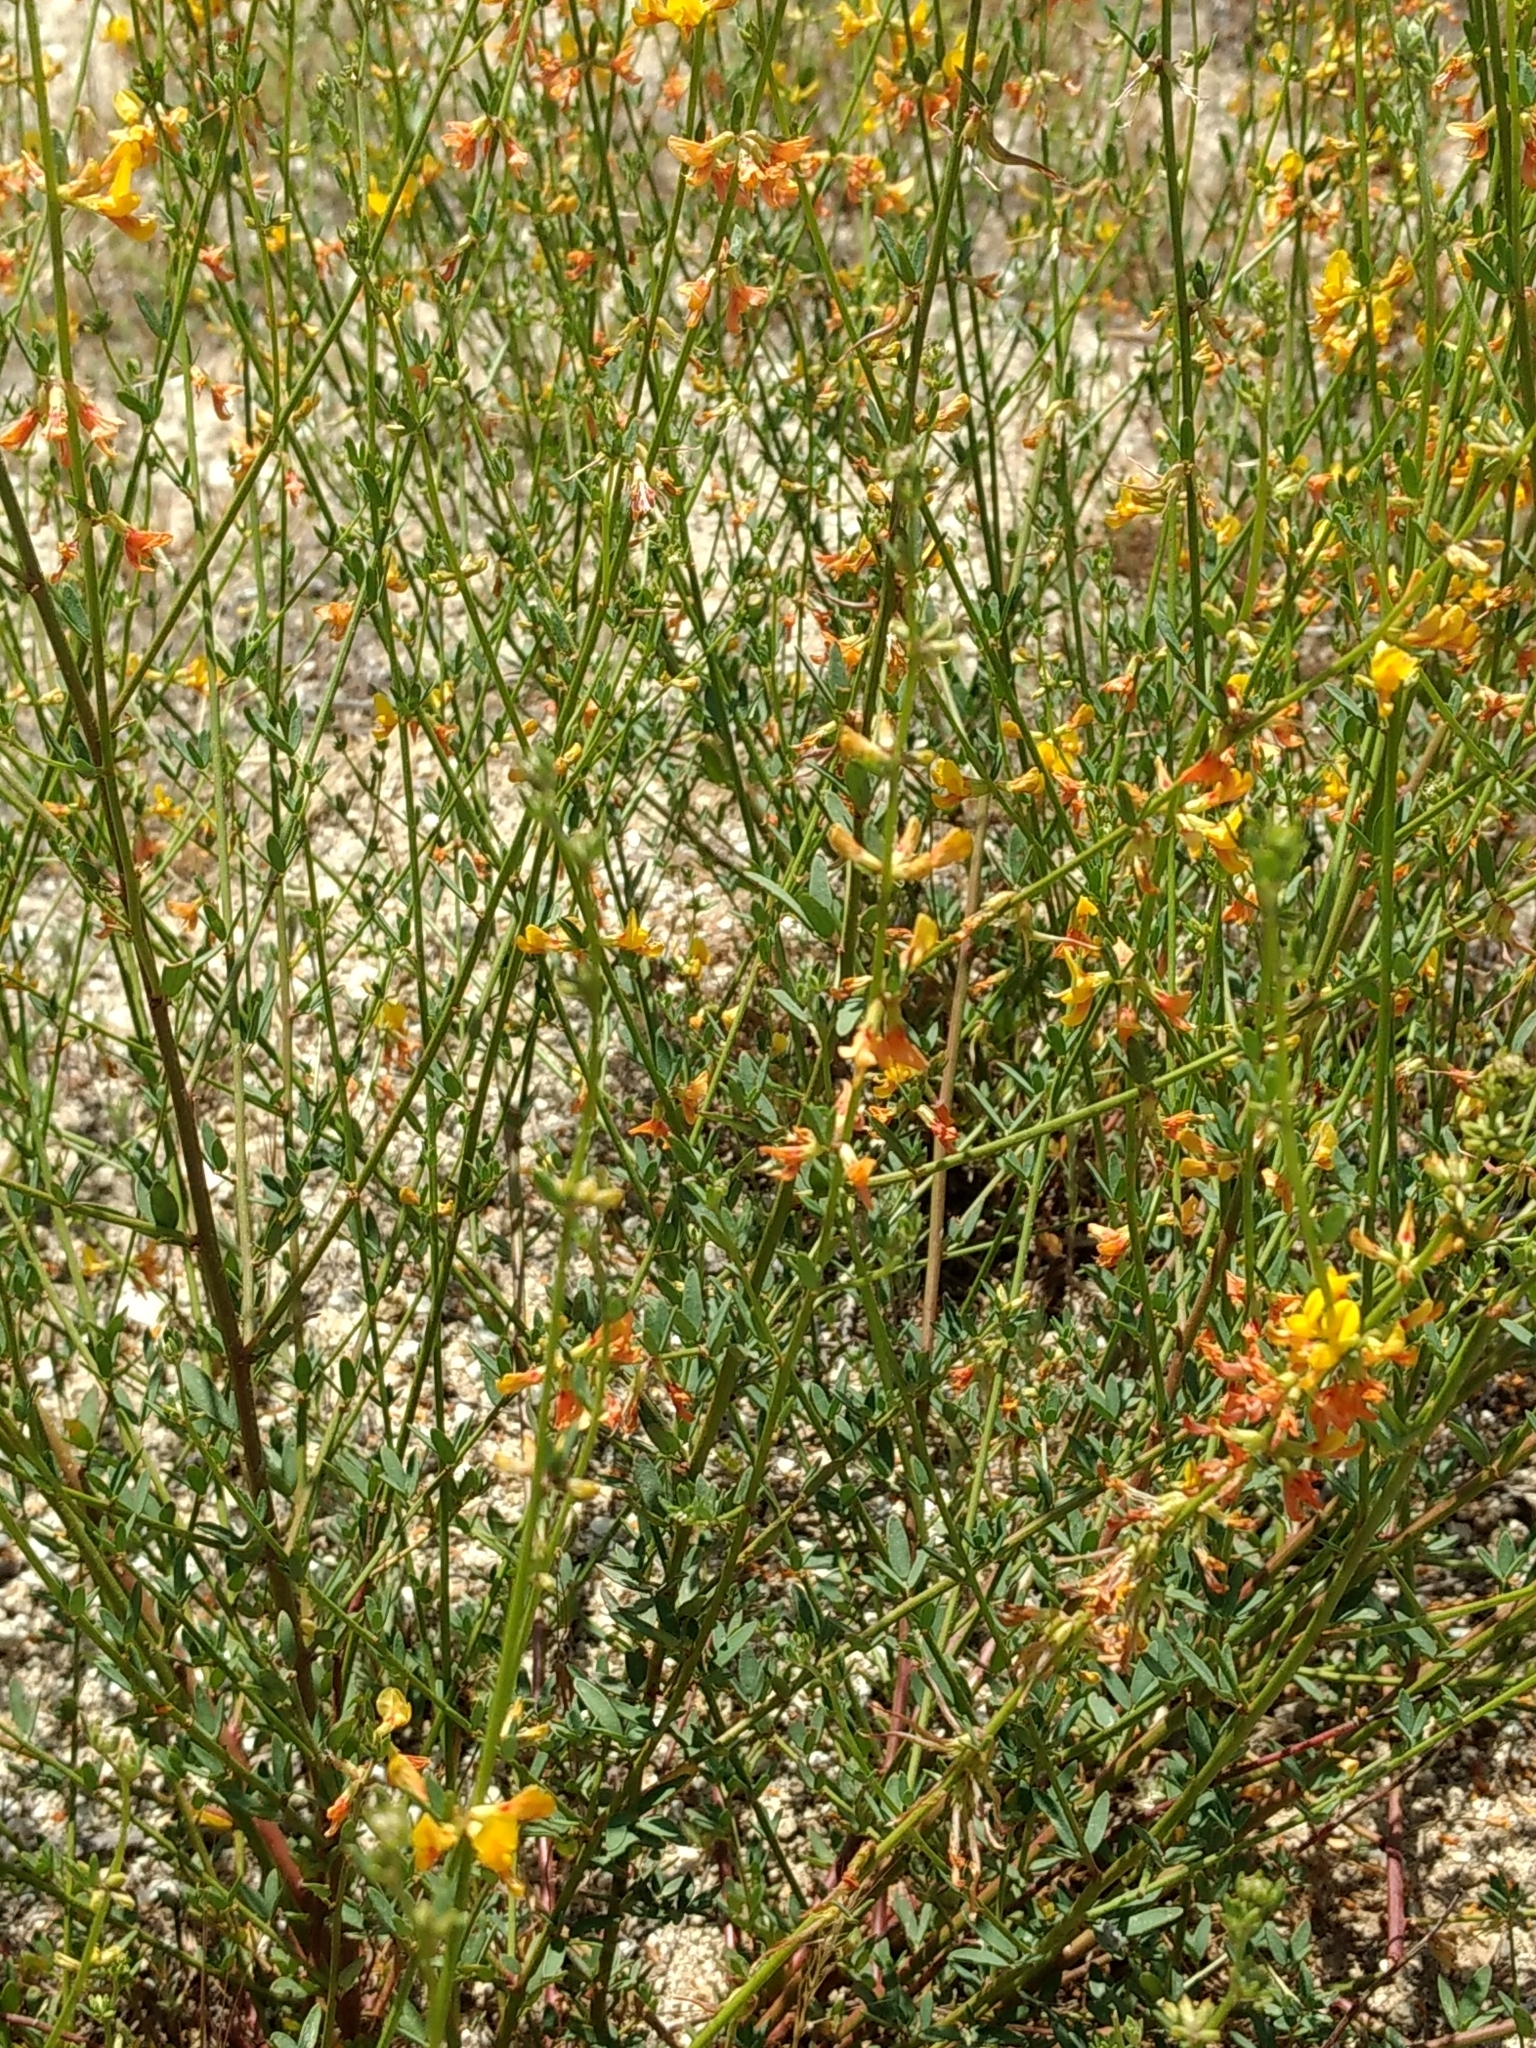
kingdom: Plantae
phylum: Tracheophyta
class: Magnoliopsida
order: Fabales
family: Fabaceae
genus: Acmispon
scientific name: Acmispon glaber
